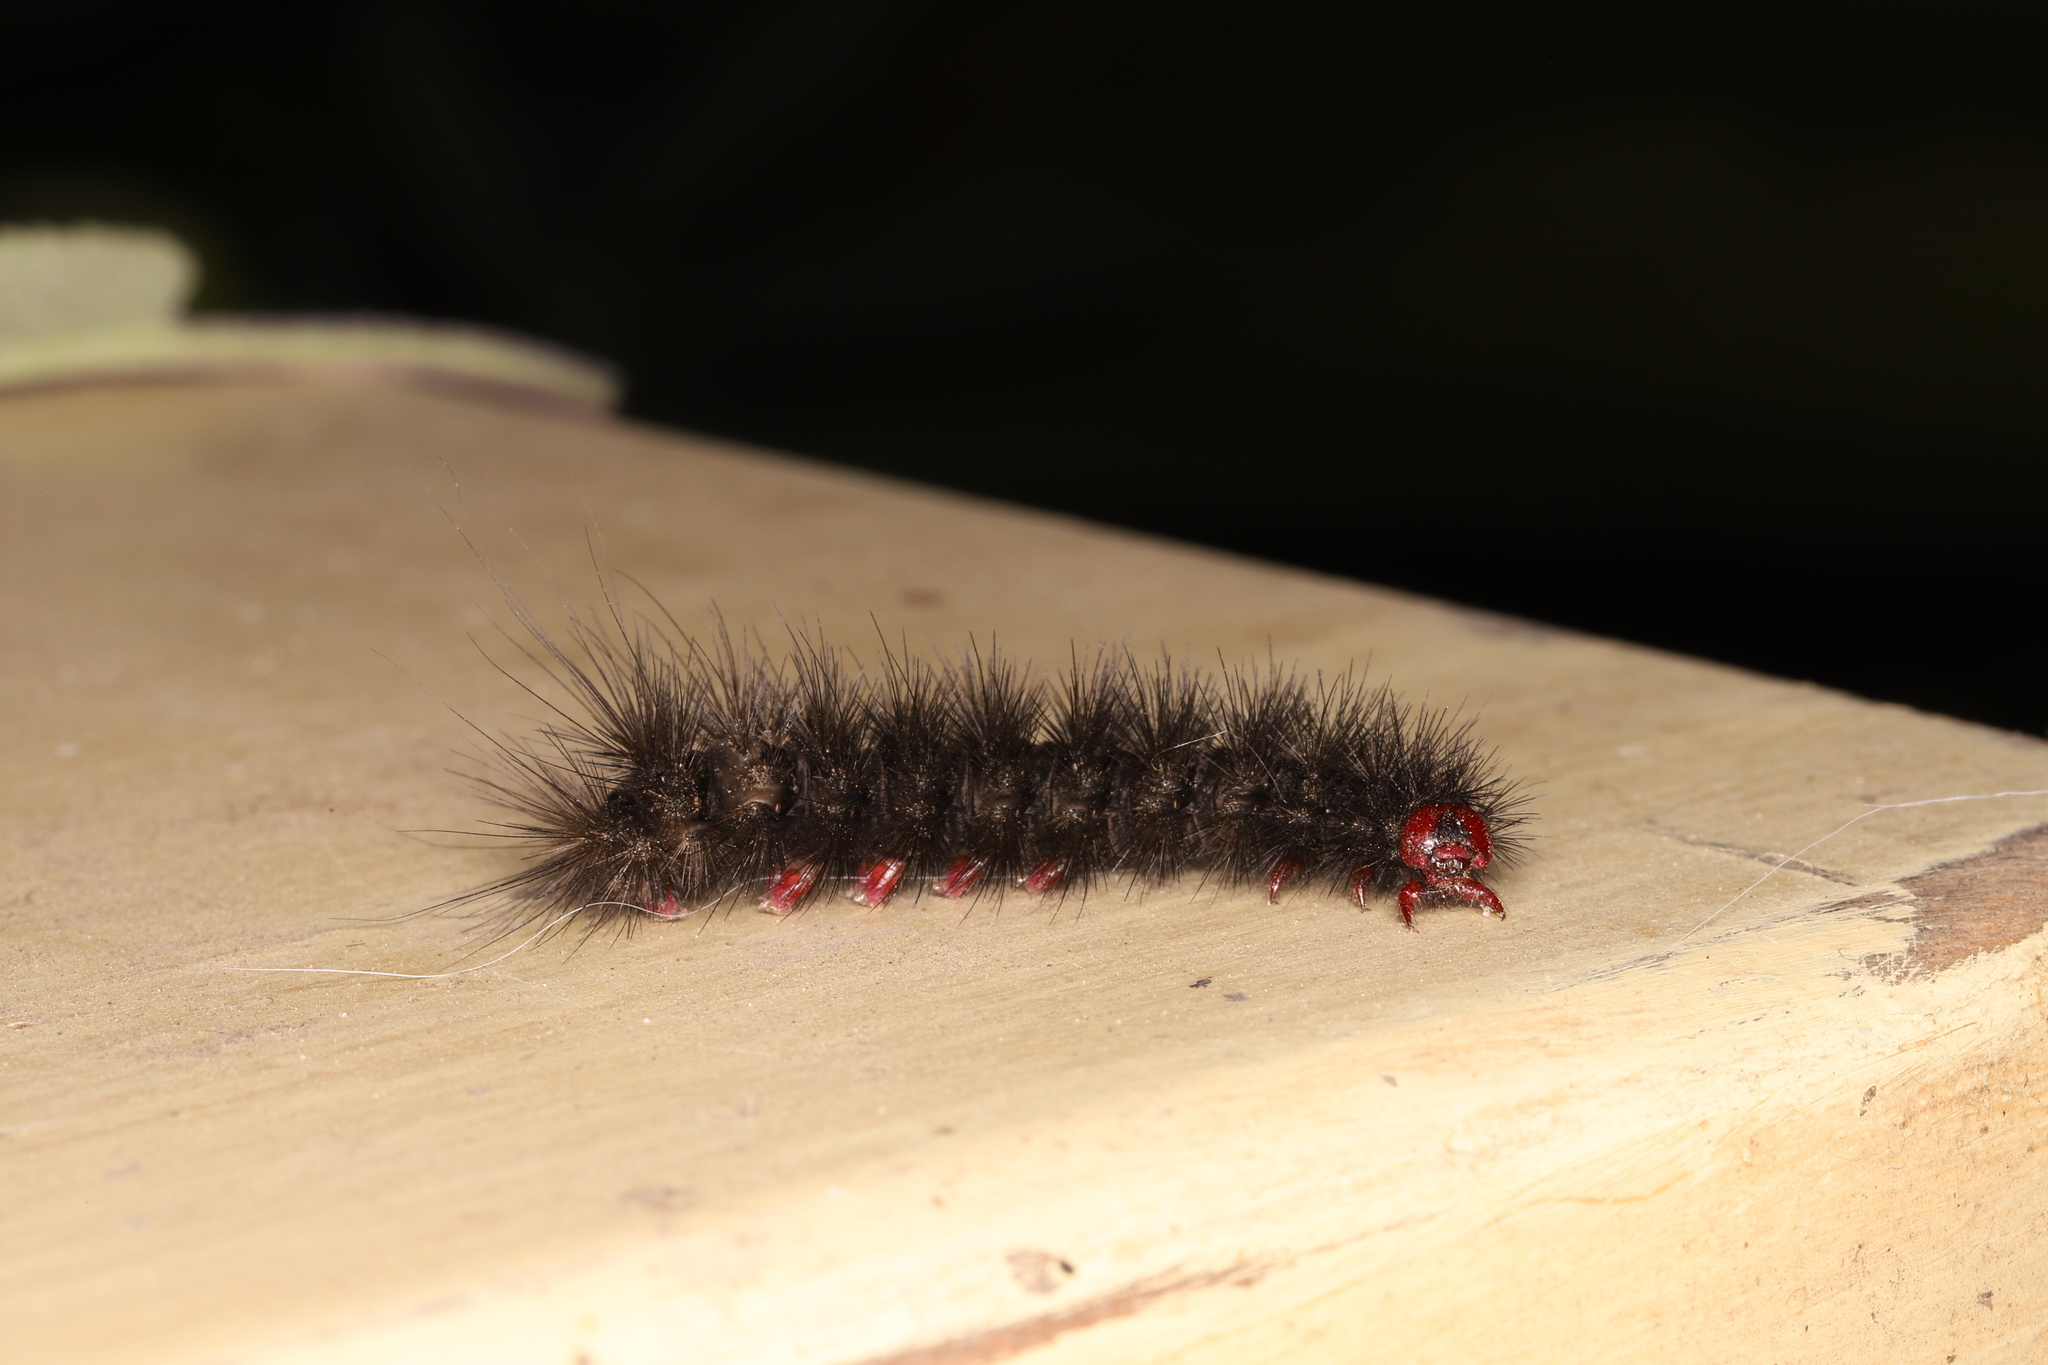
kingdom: Animalia
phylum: Arthropoda
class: Insecta
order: Lepidoptera
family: Erebidae
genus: Epicallia
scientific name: Epicallia villica
